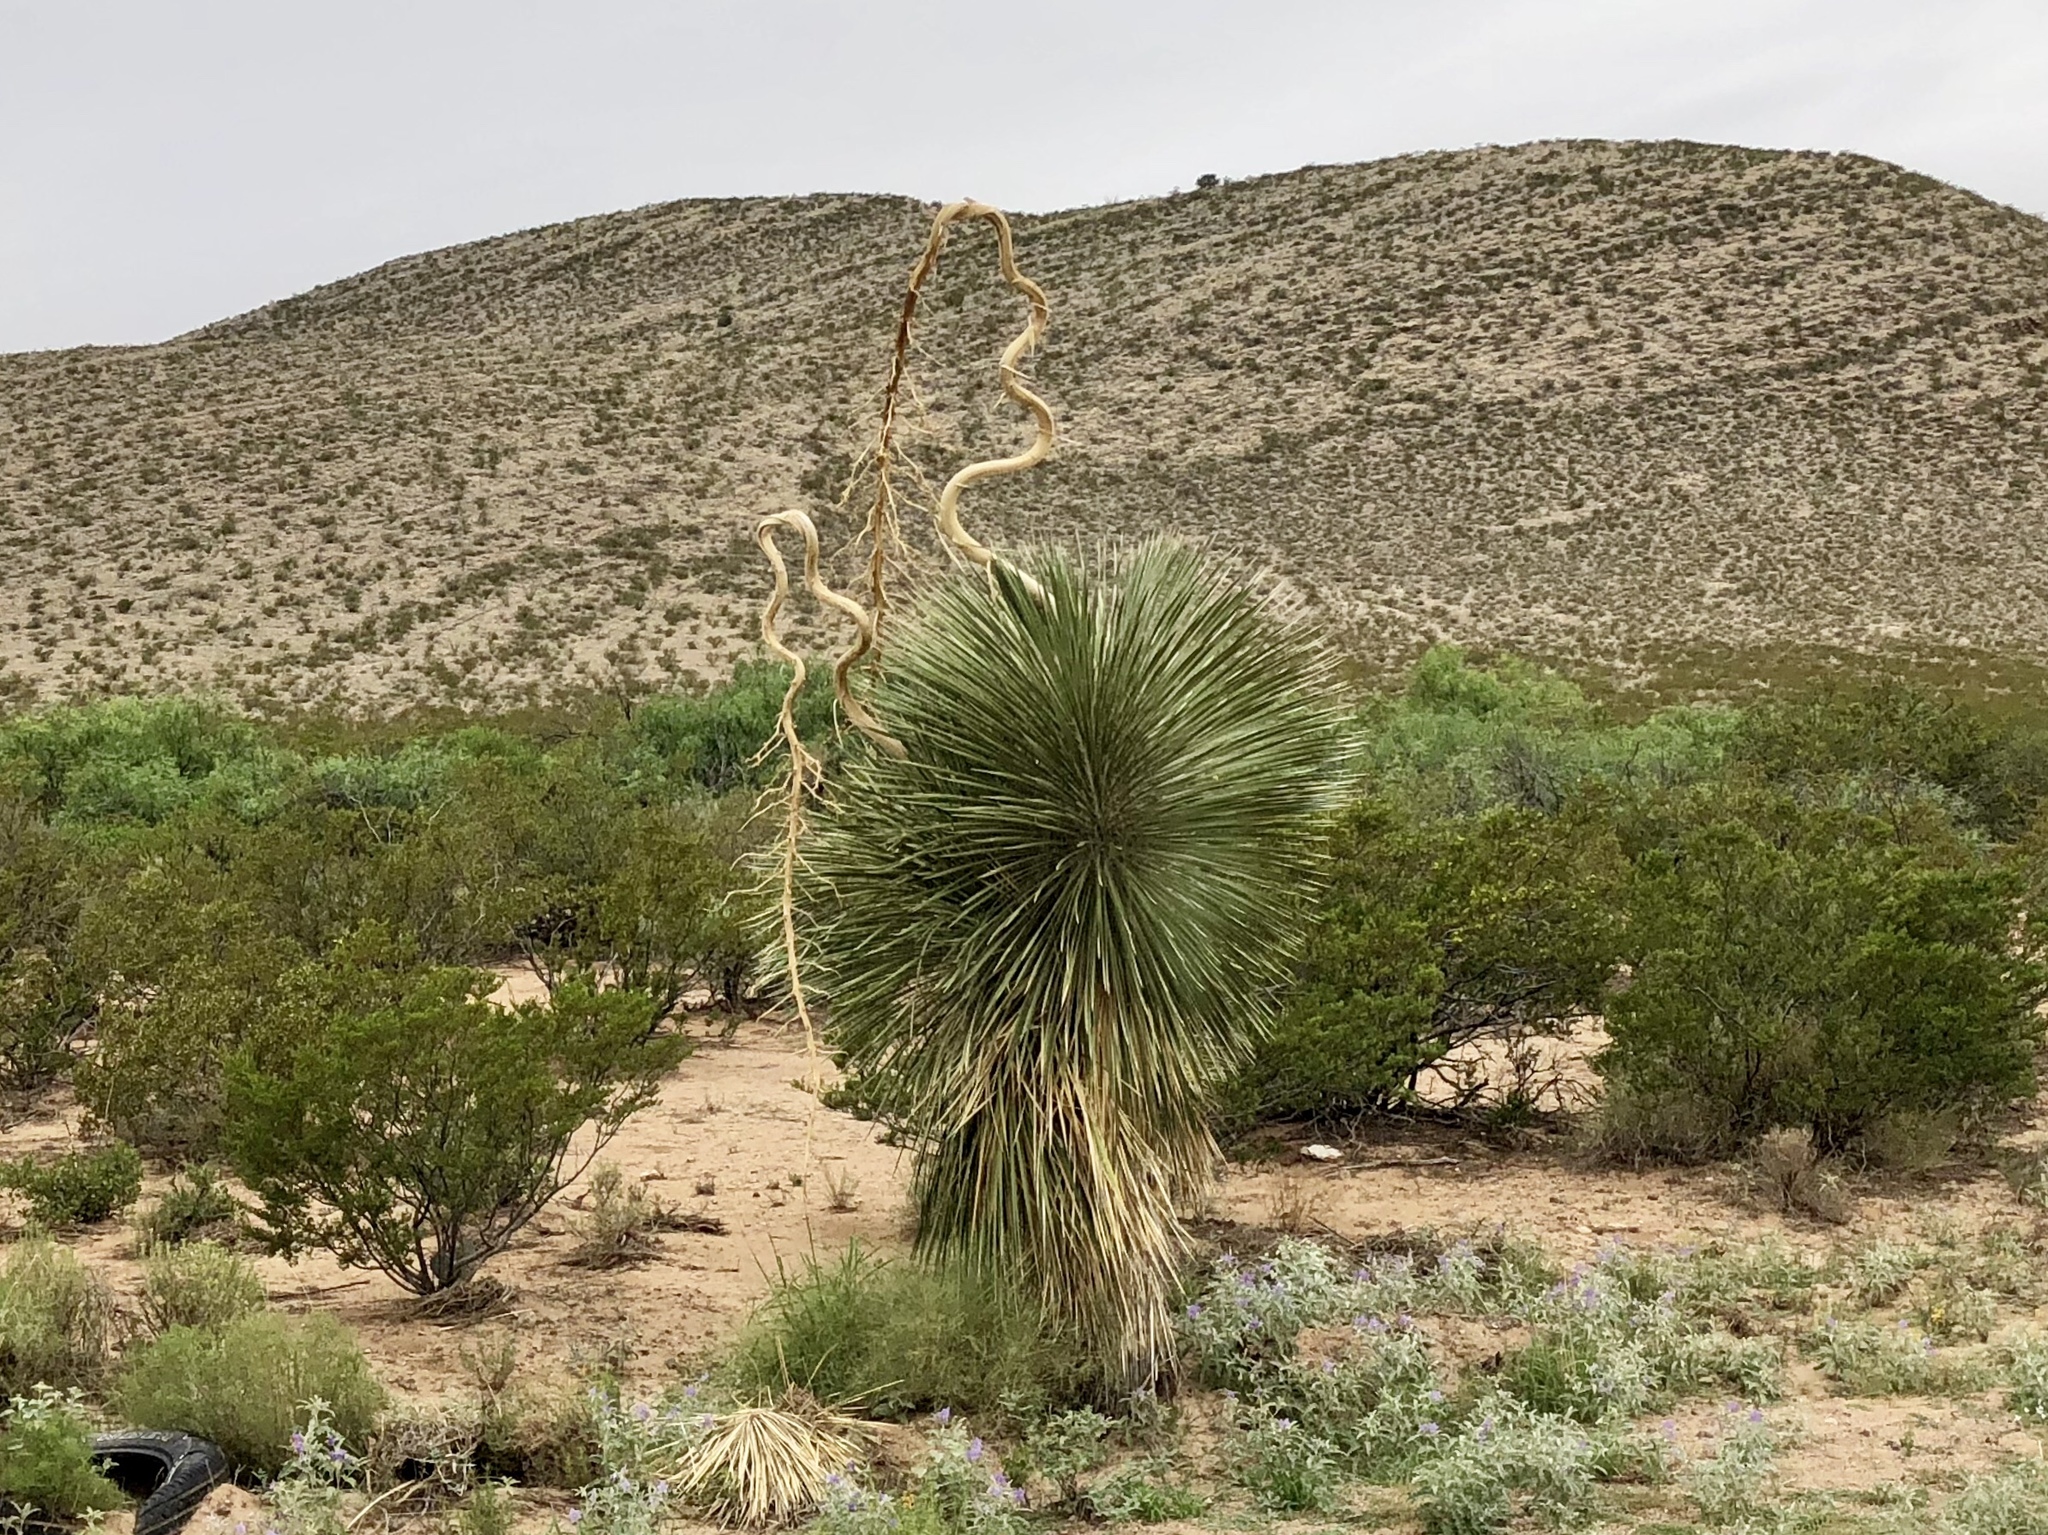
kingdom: Plantae
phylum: Tracheophyta
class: Liliopsida
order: Asparagales
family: Asparagaceae
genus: Yucca
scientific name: Yucca elata
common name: Palmella
